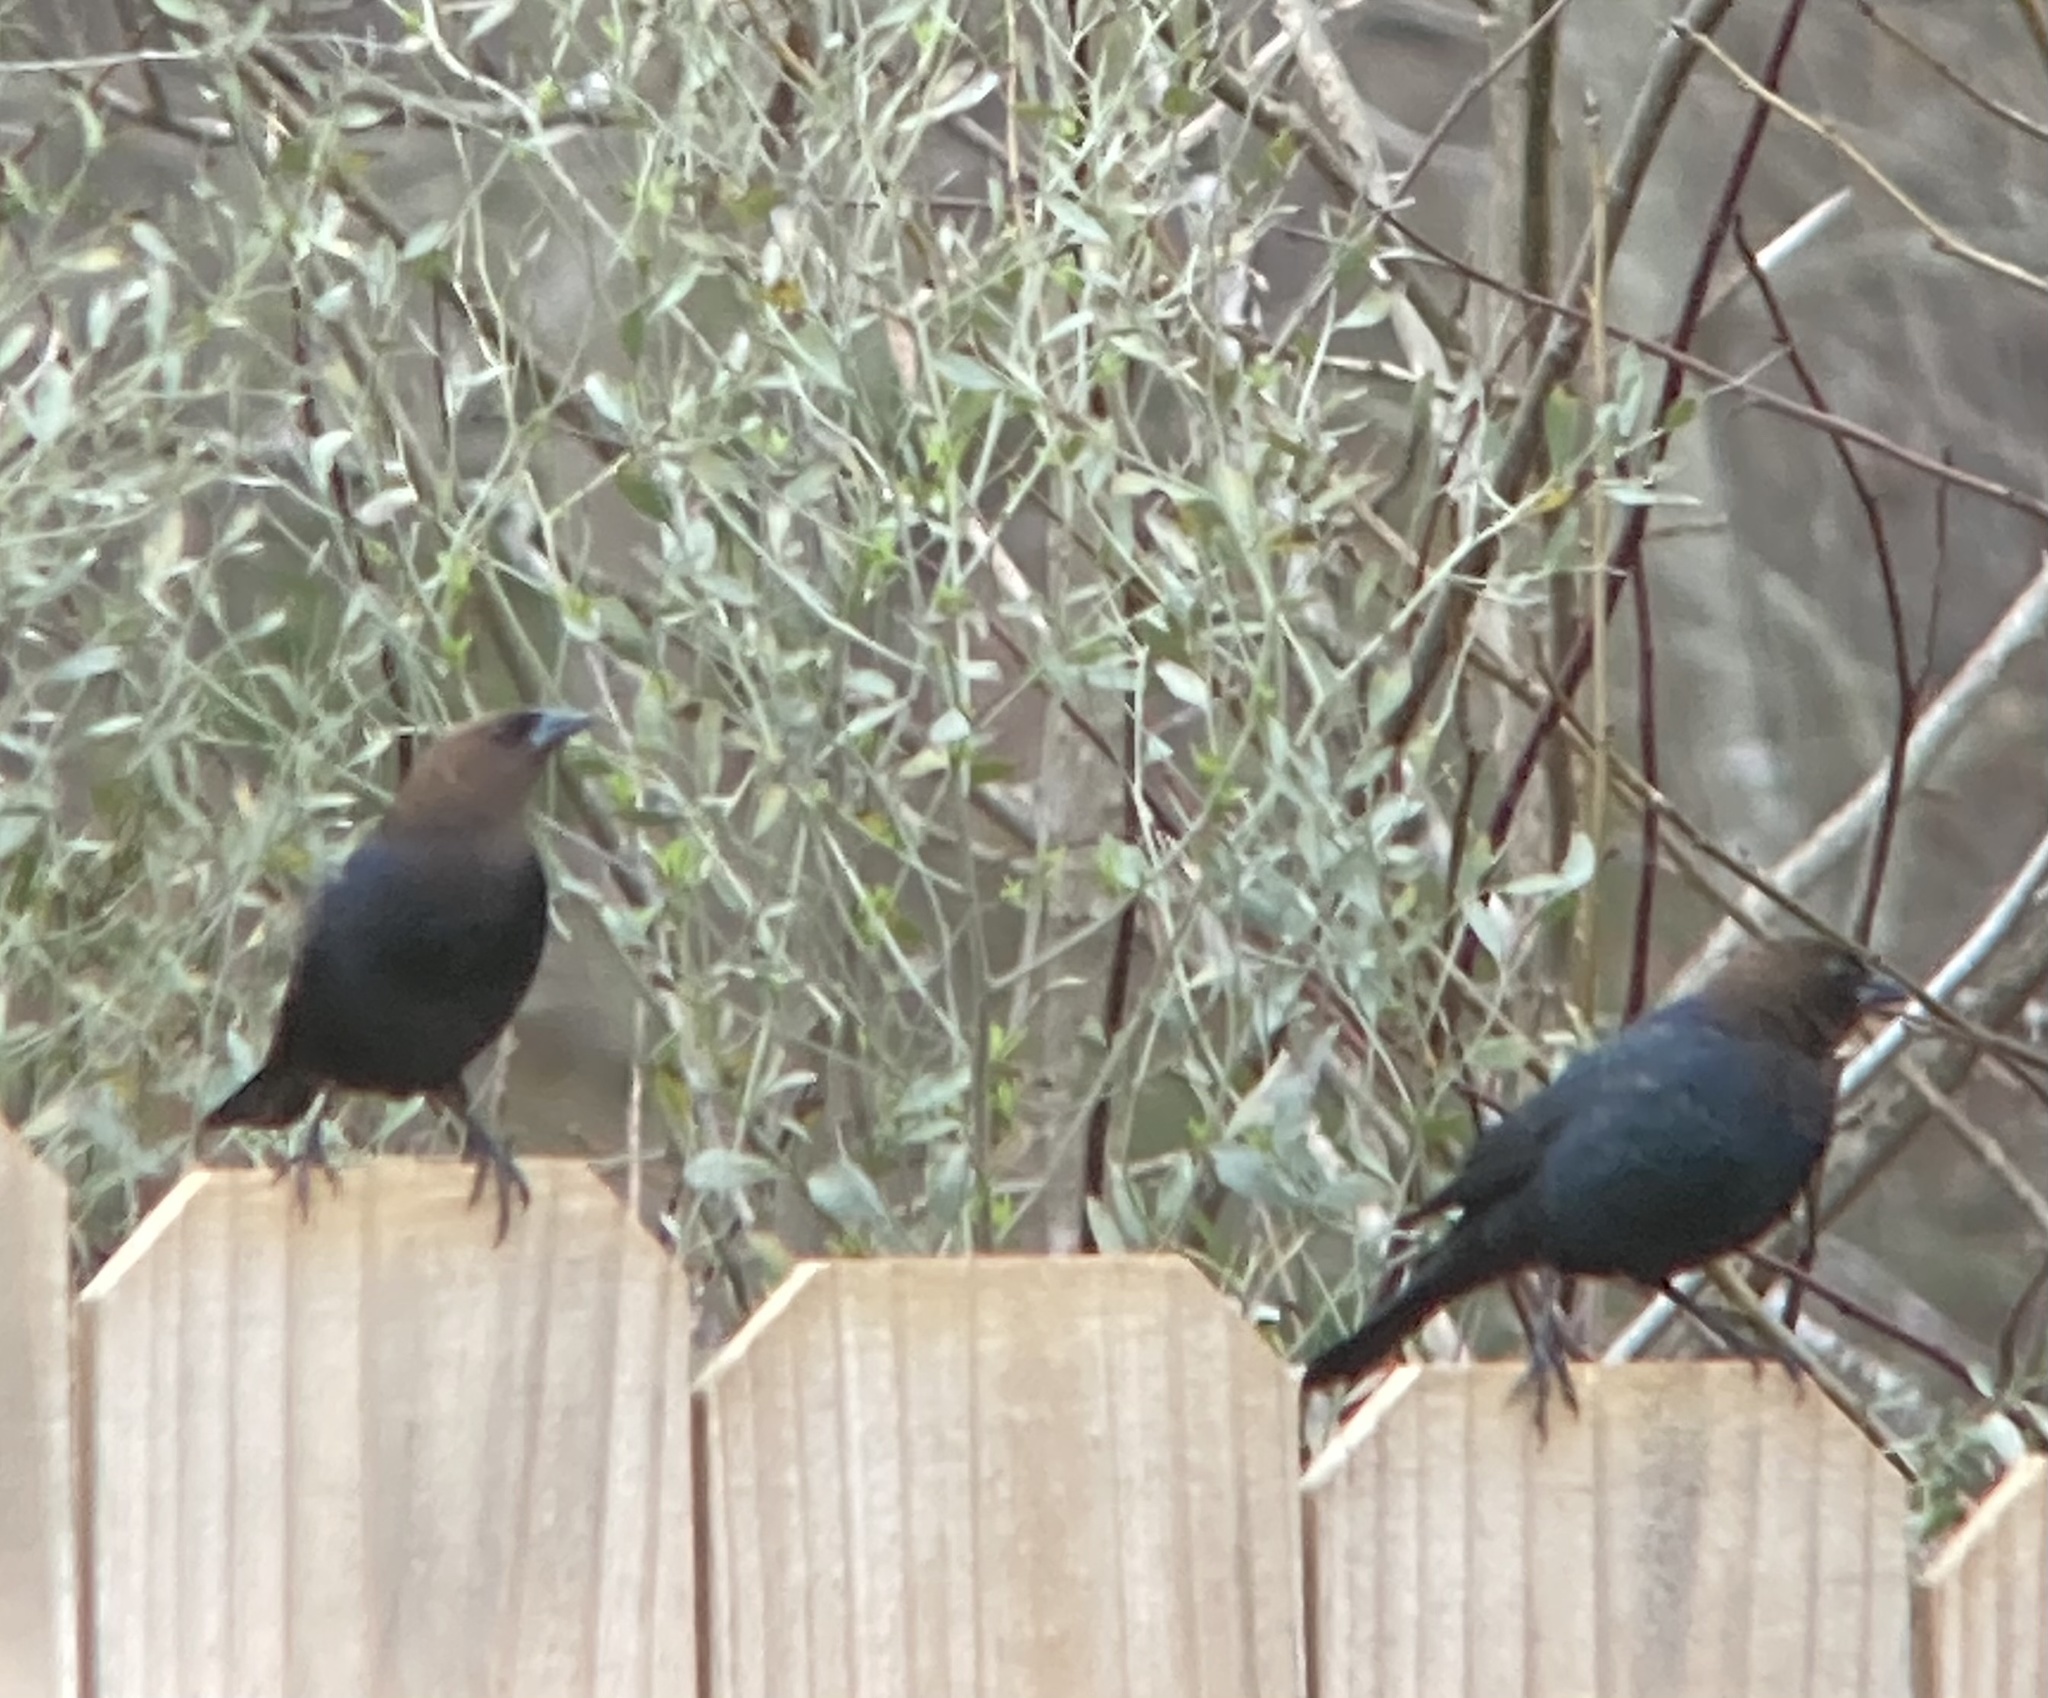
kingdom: Animalia
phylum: Chordata
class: Aves
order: Passeriformes
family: Icteridae
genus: Molothrus
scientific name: Molothrus ater
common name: Brown-headed cowbird
